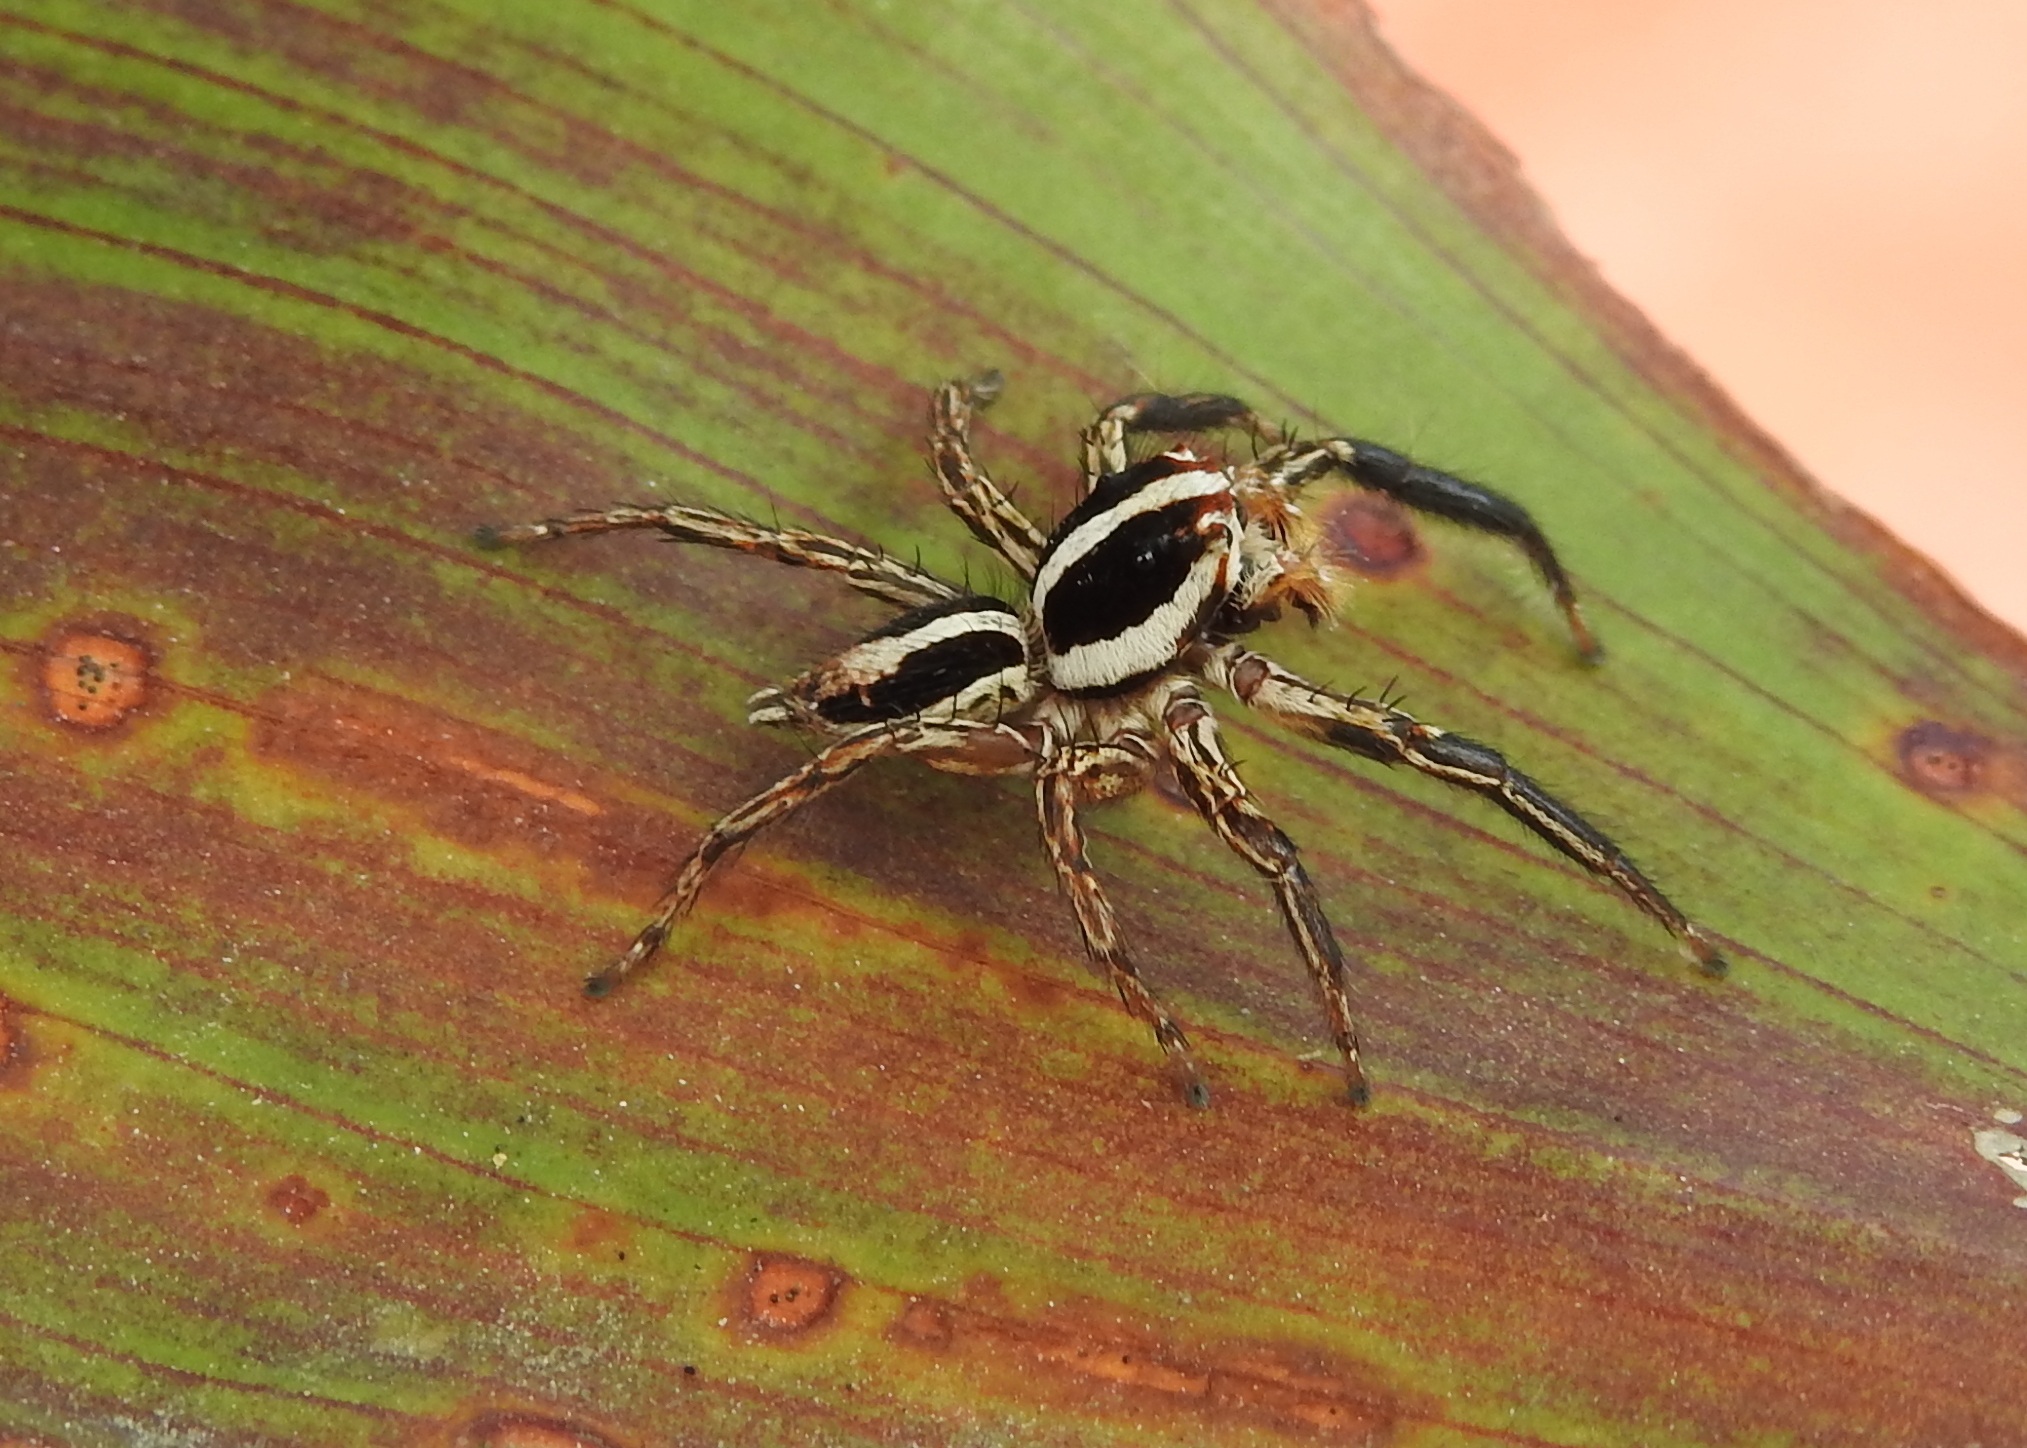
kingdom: Animalia
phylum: Arthropoda
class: Arachnida
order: Araneae
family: Salticidae
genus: Plexippus
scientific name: Plexippus paykulli
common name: Pantropical jumper
